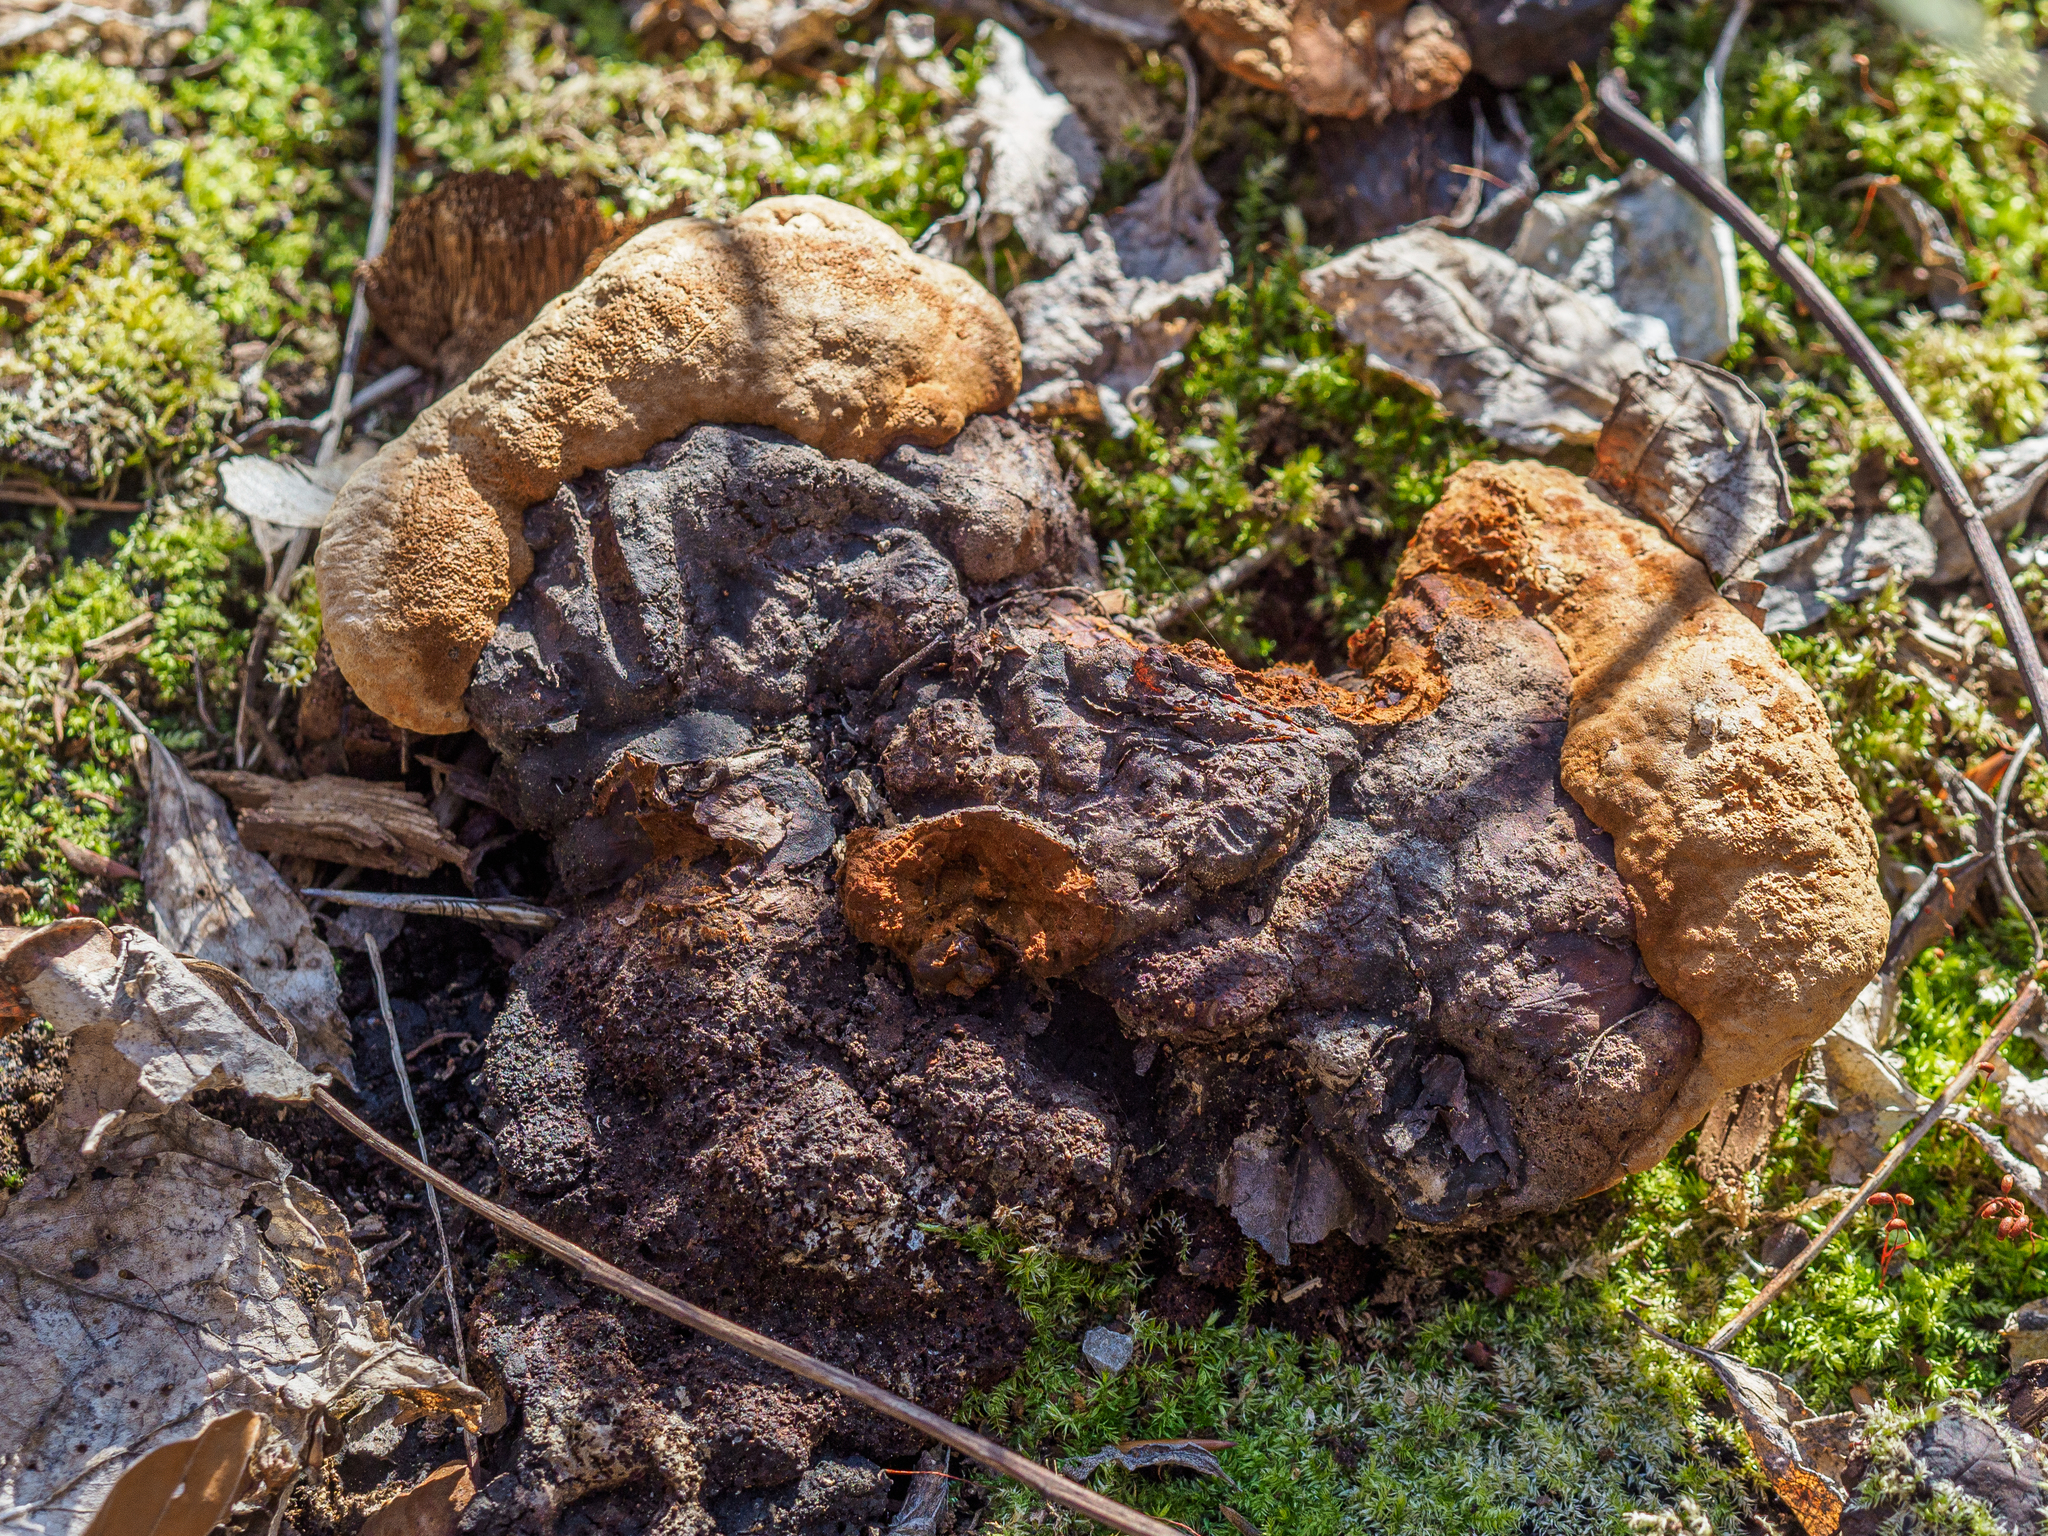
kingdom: Fungi
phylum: Basidiomycota
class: Agaricomycetes
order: Gloeophyllales
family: Gloeophyllaceae
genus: Gloeophyllum
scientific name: Gloeophyllum odoratum
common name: Anise mazegill
